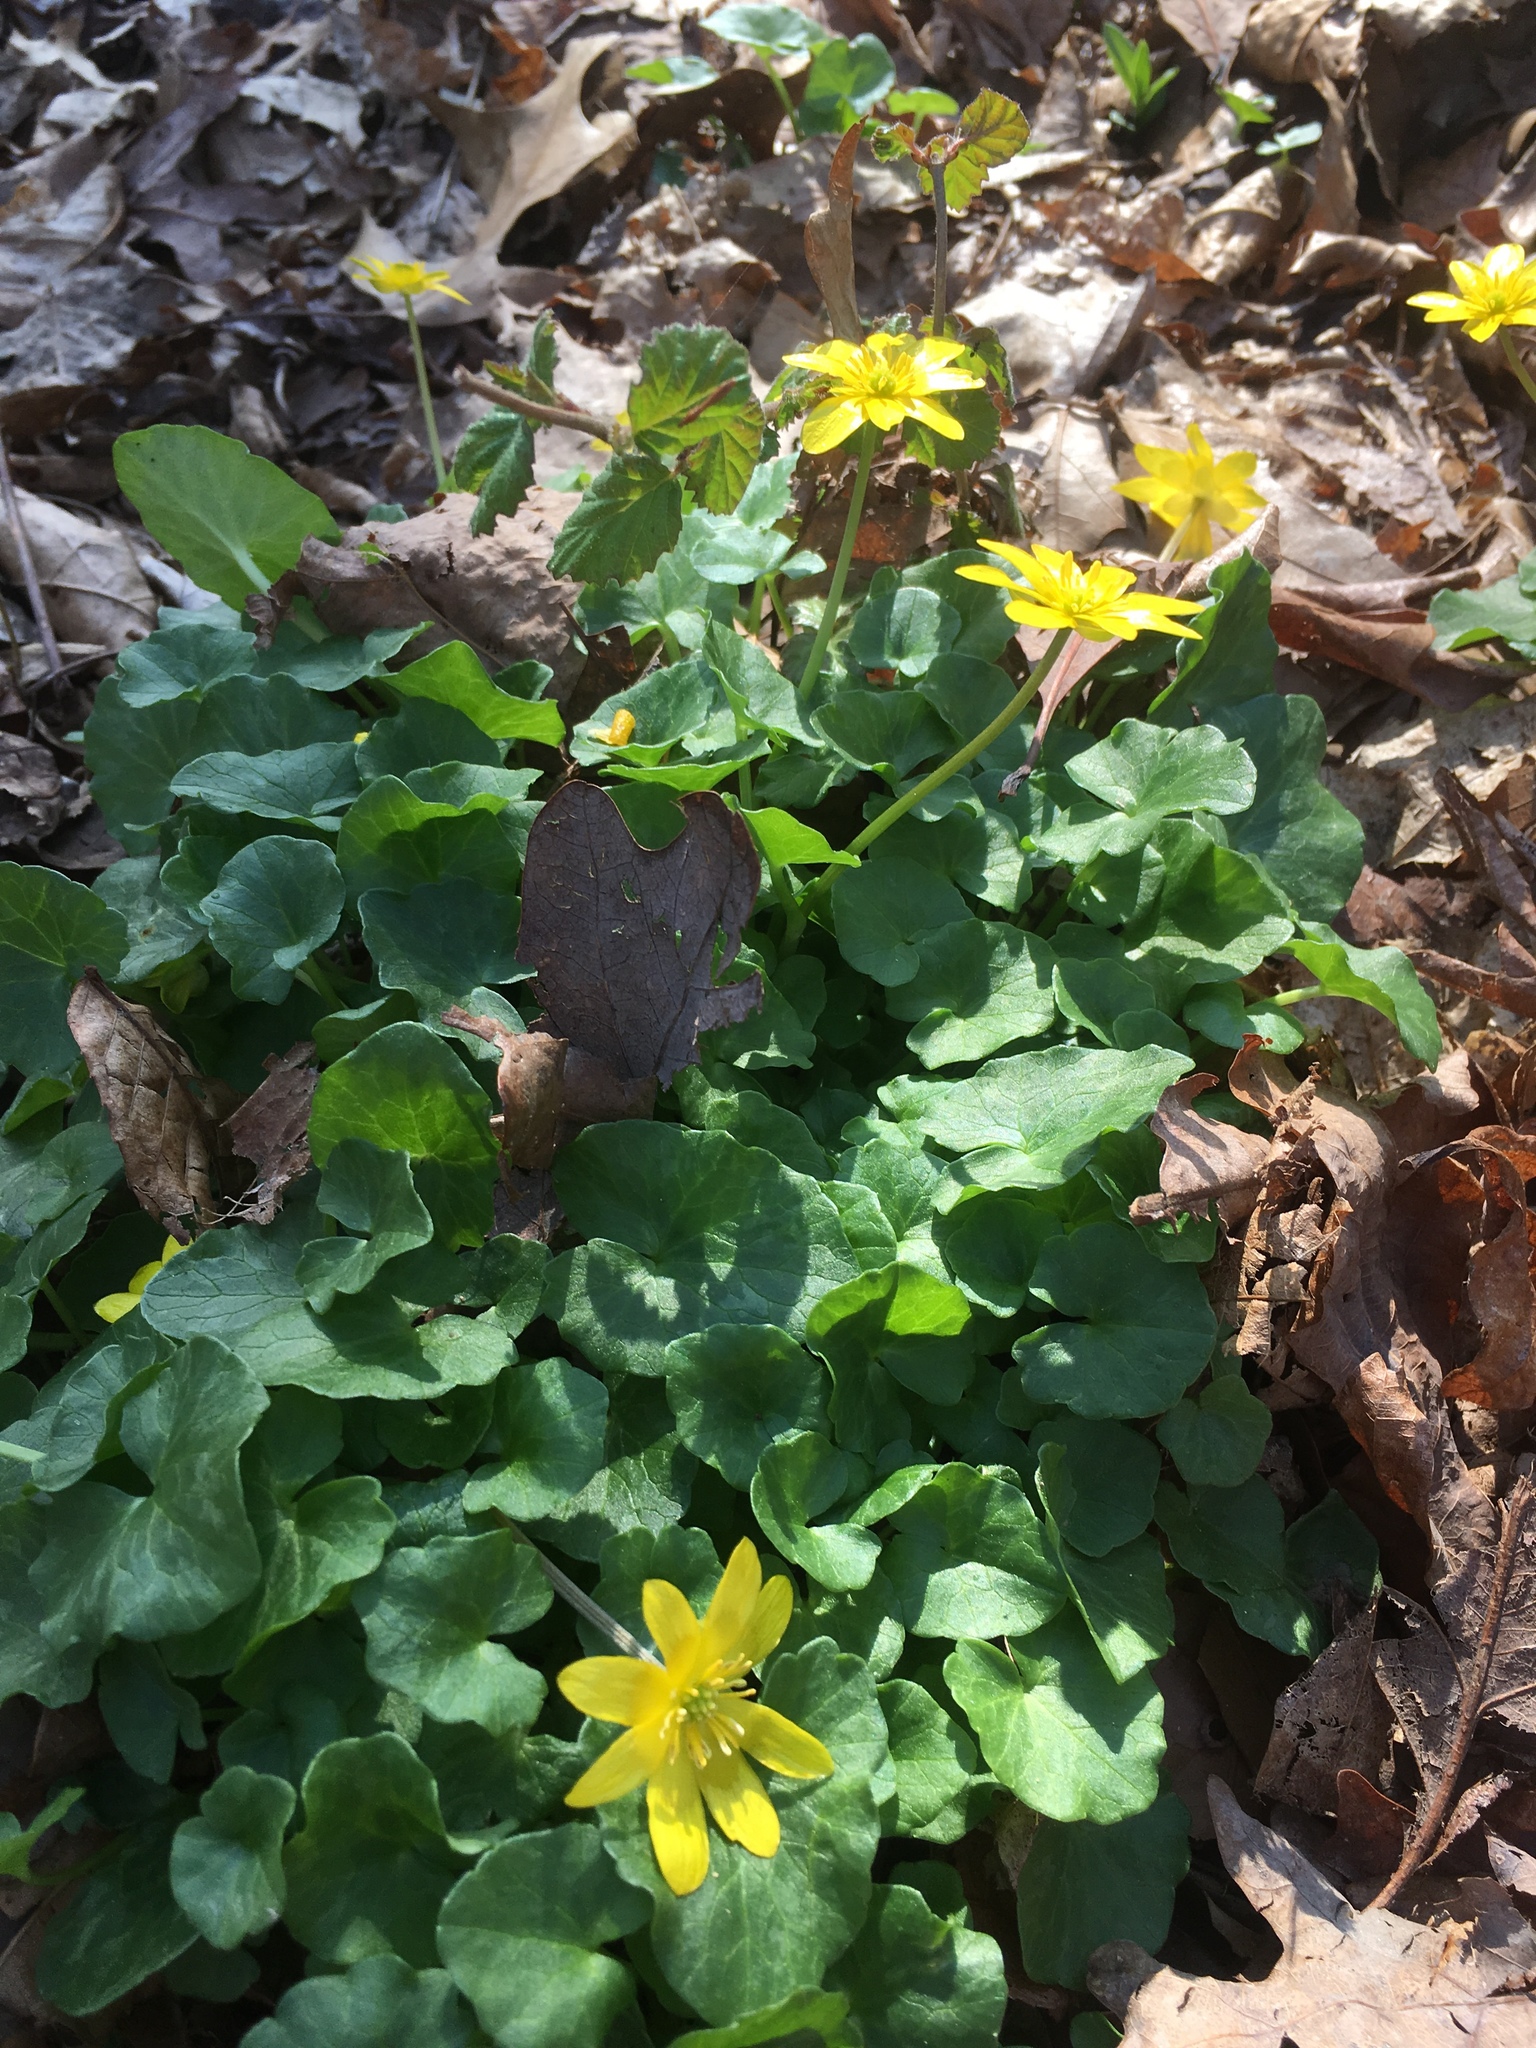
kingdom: Plantae
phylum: Tracheophyta
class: Magnoliopsida
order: Ranunculales
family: Ranunculaceae
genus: Ficaria
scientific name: Ficaria verna
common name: Lesser celandine
